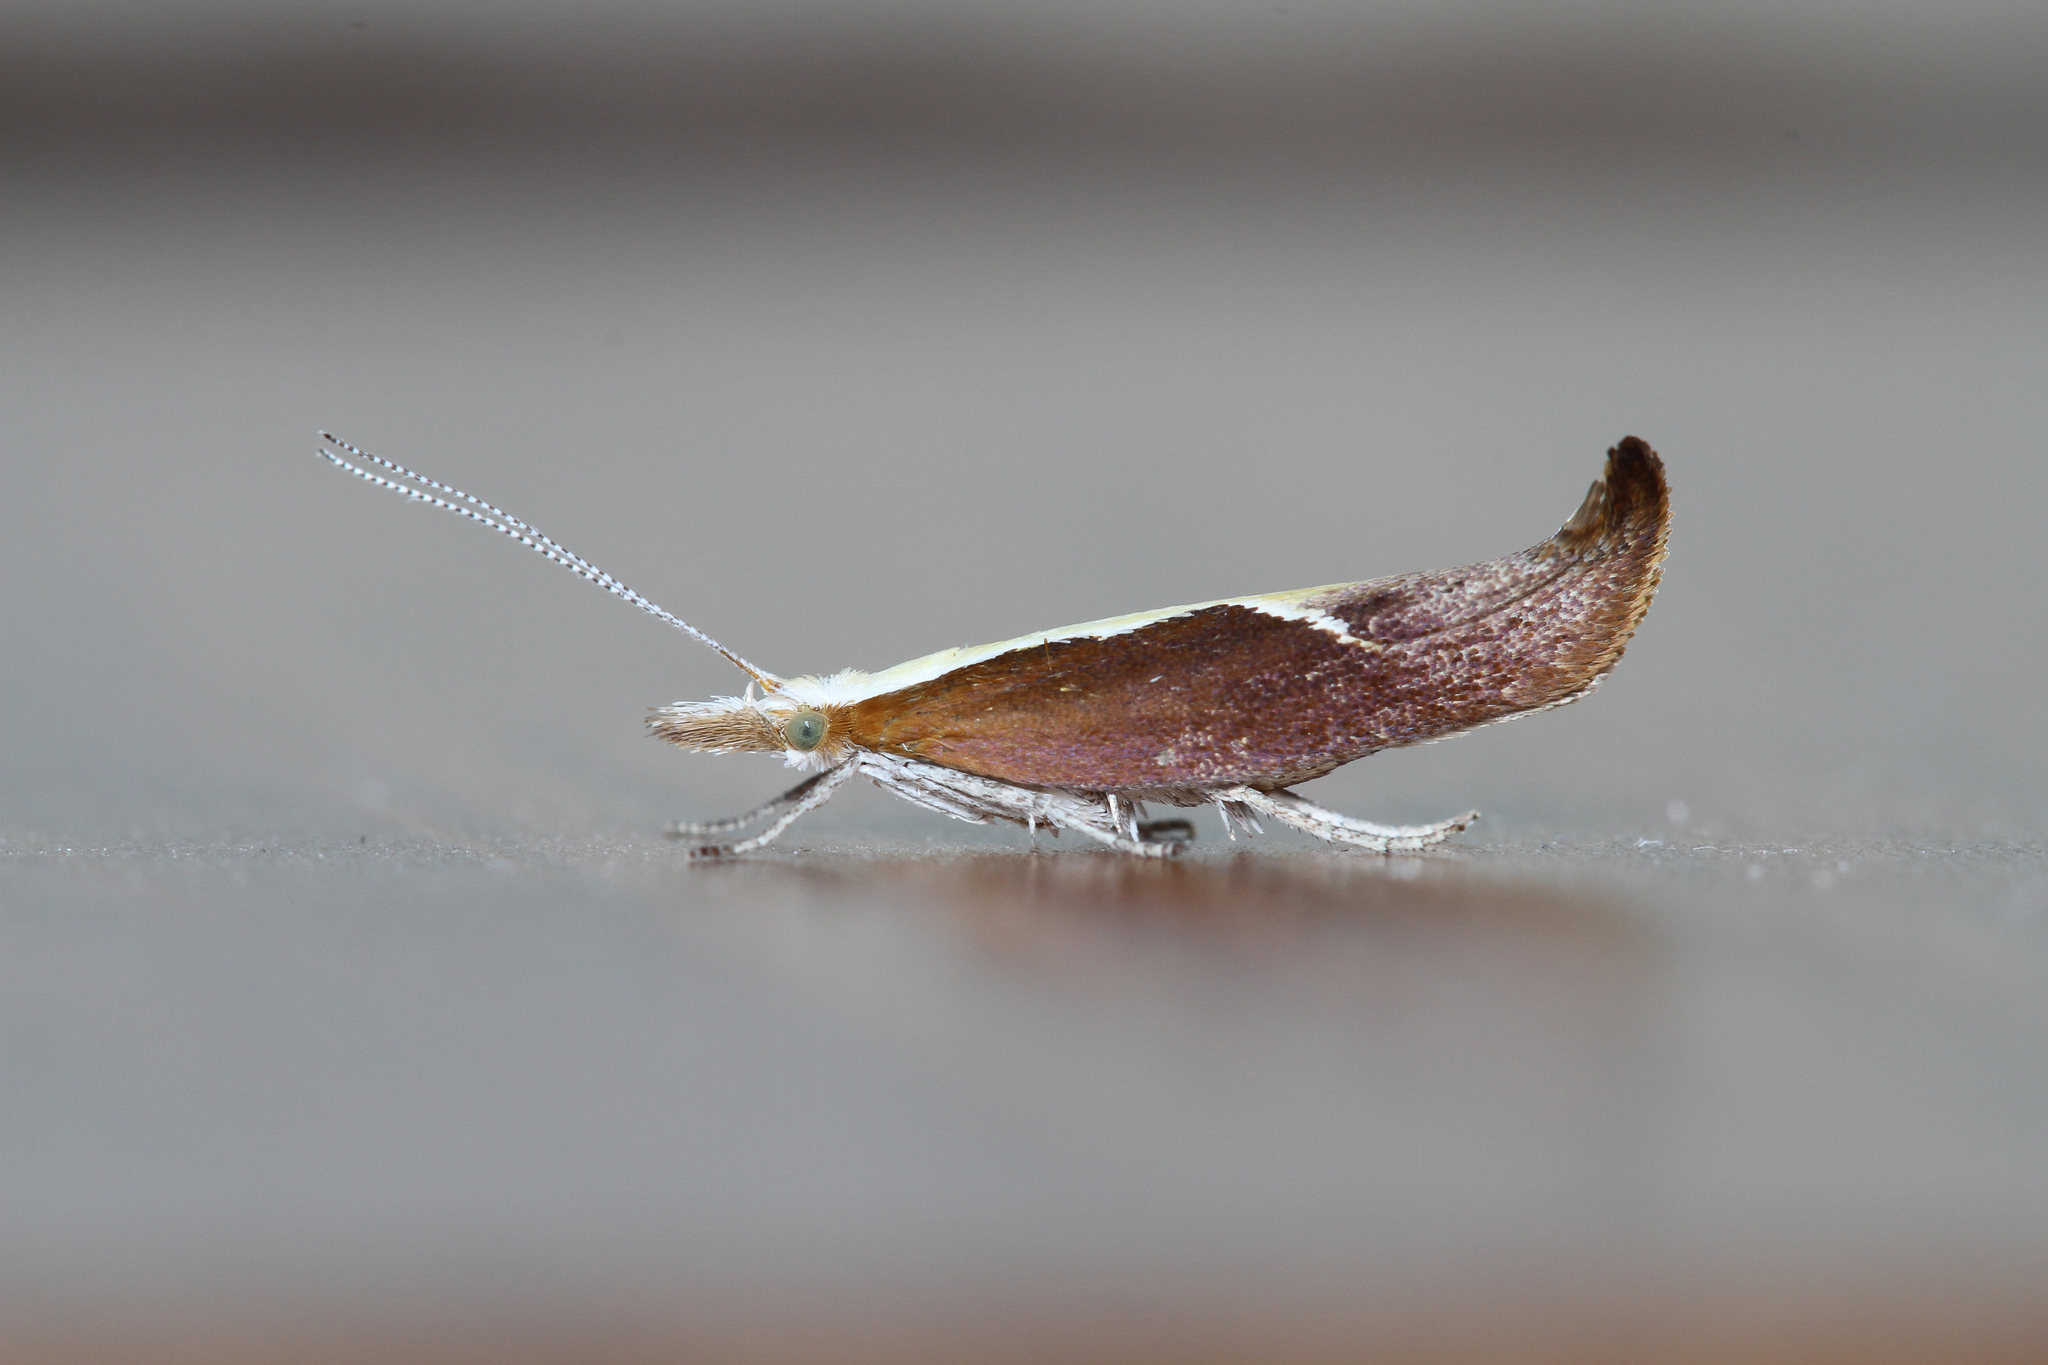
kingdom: Animalia
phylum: Arthropoda
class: Insecta
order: Lepidoptera
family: Ypsolophidae
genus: Ypsolopha
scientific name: Ypsolopha dentella
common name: Honeysuckle moth
